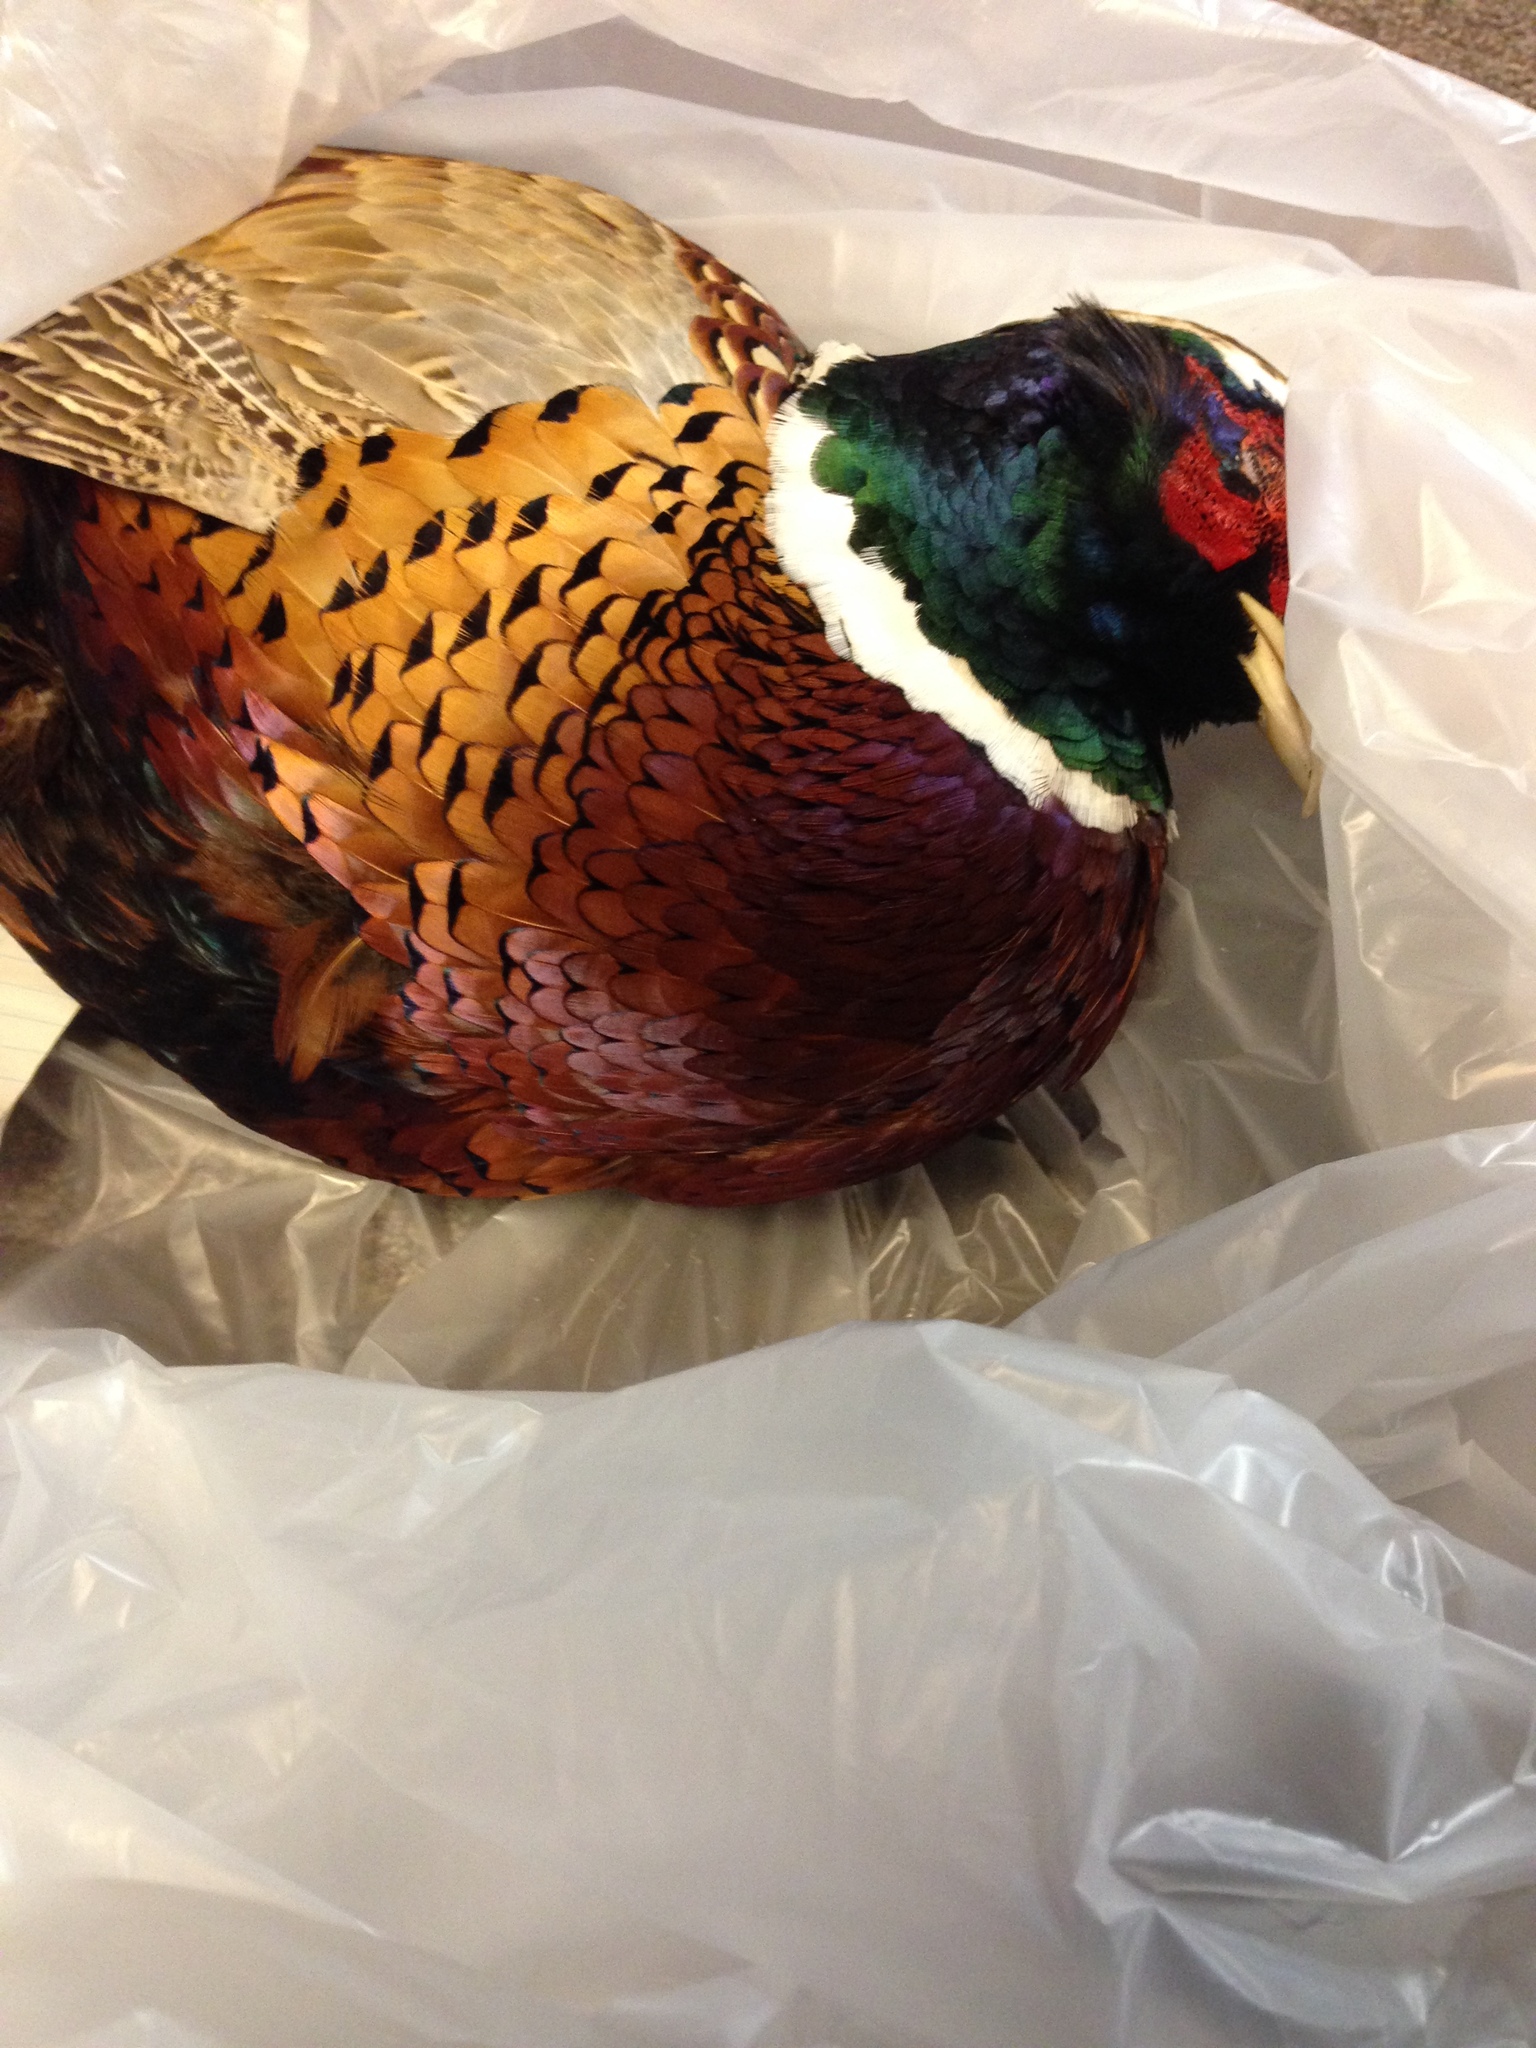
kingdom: Animalia
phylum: Chordata
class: Aves
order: Galliformes
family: Phasianidae
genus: Phasianus
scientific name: Phasianus colchicus
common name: Common pheasant
